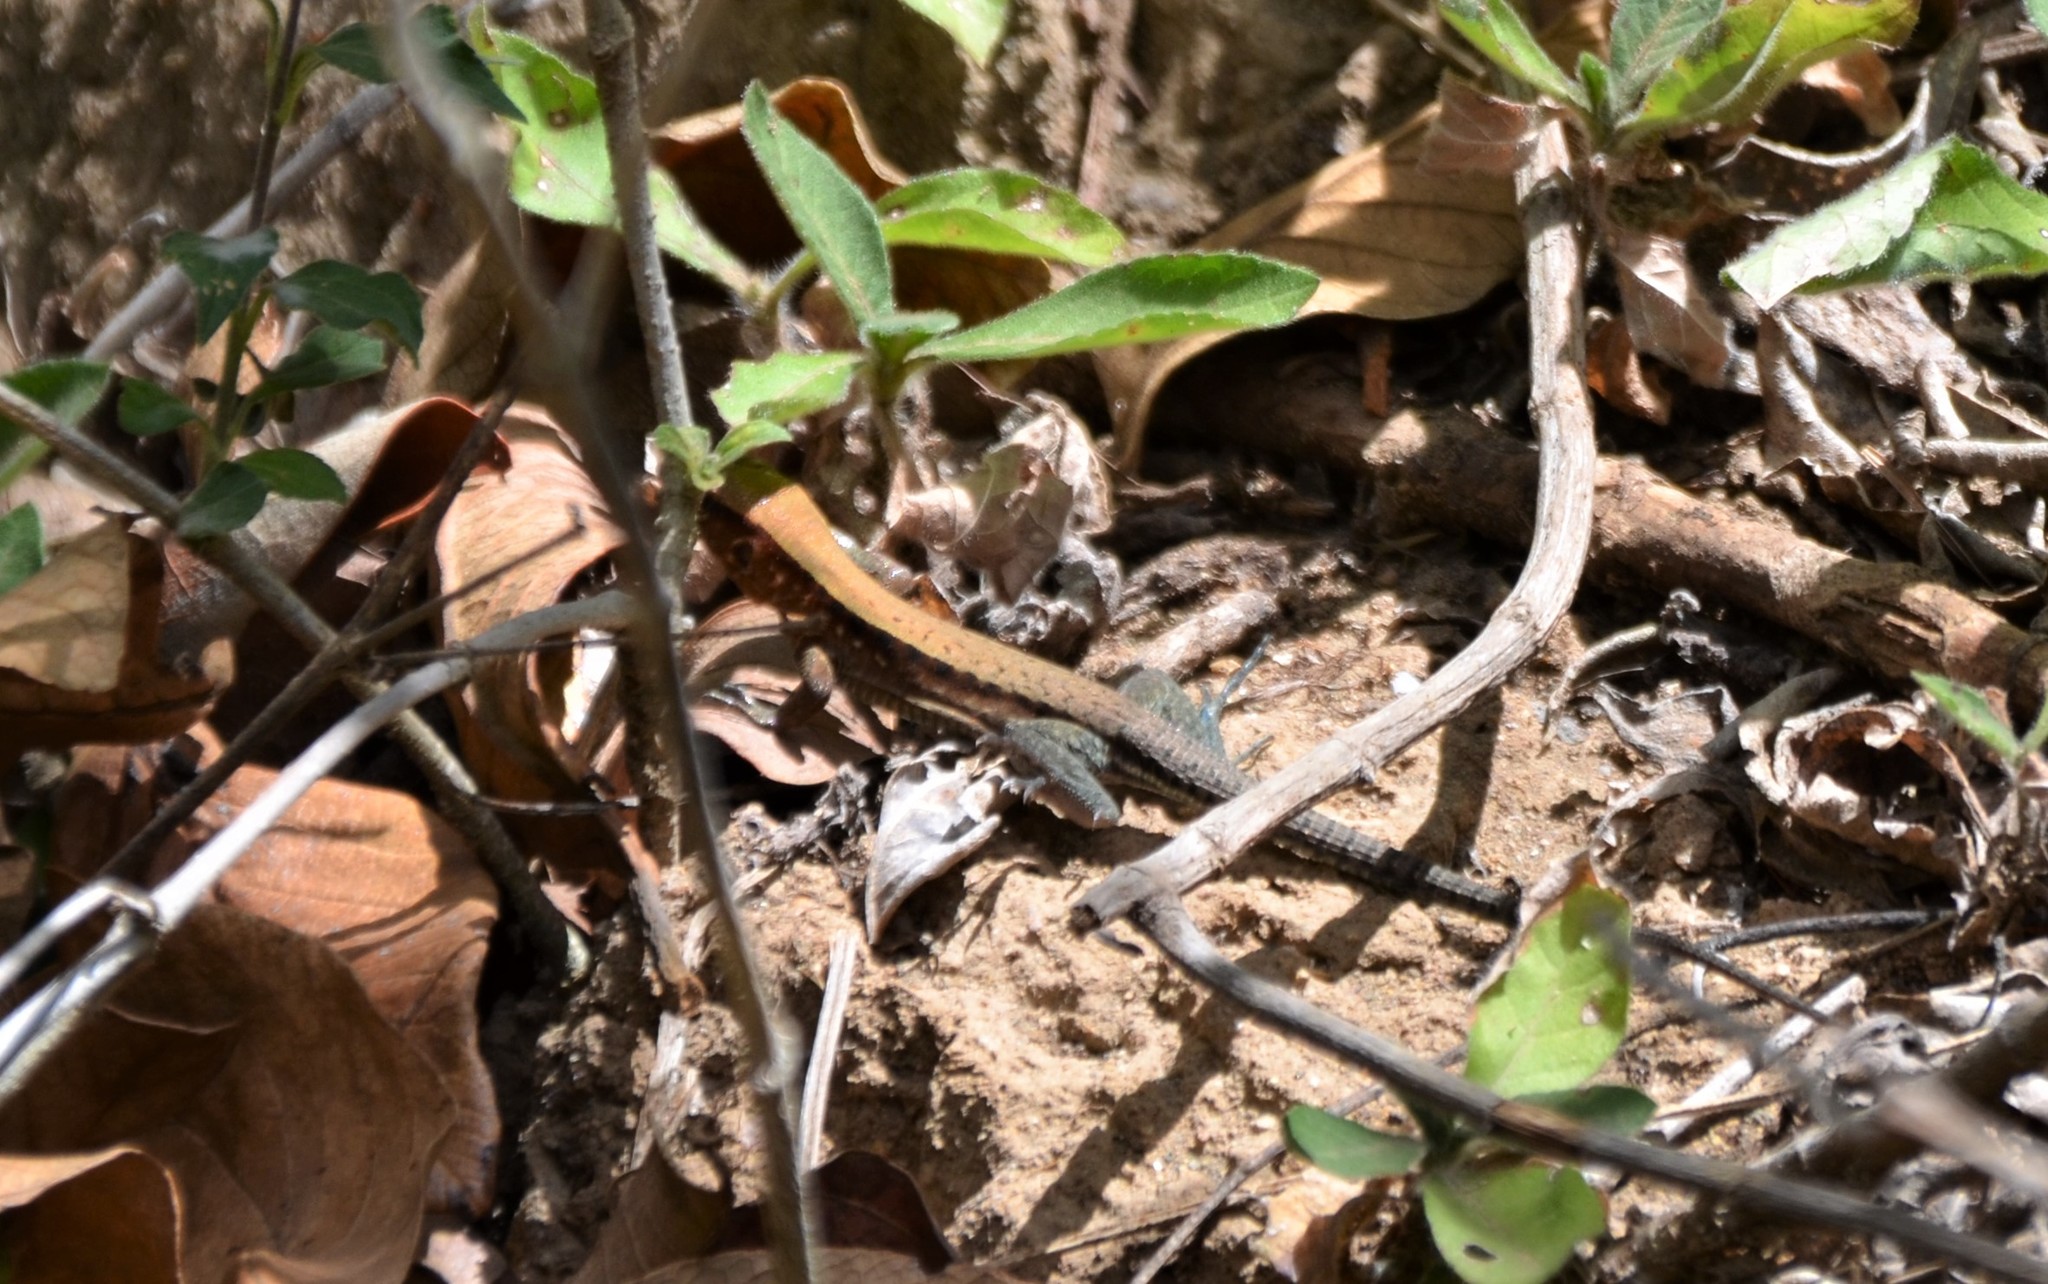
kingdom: Animalia
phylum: Chordata
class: Squamata
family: Teiidae
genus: Holcosus
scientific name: Holcosus undulatus
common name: Rainbow ameiva
